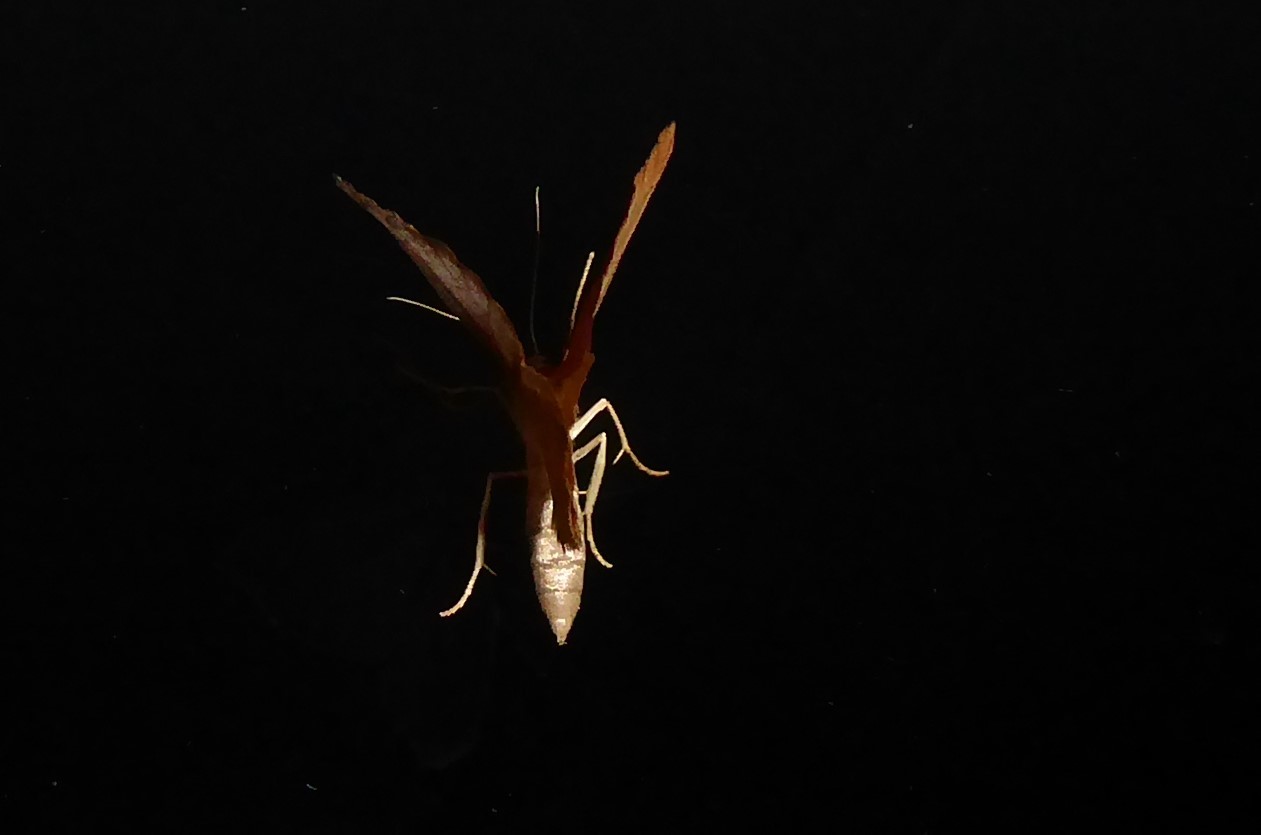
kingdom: Animalia
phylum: Arthropoda
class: Insecta
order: Lepidoptera
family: Geometridae
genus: Sestra
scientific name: Sestra humeraria
